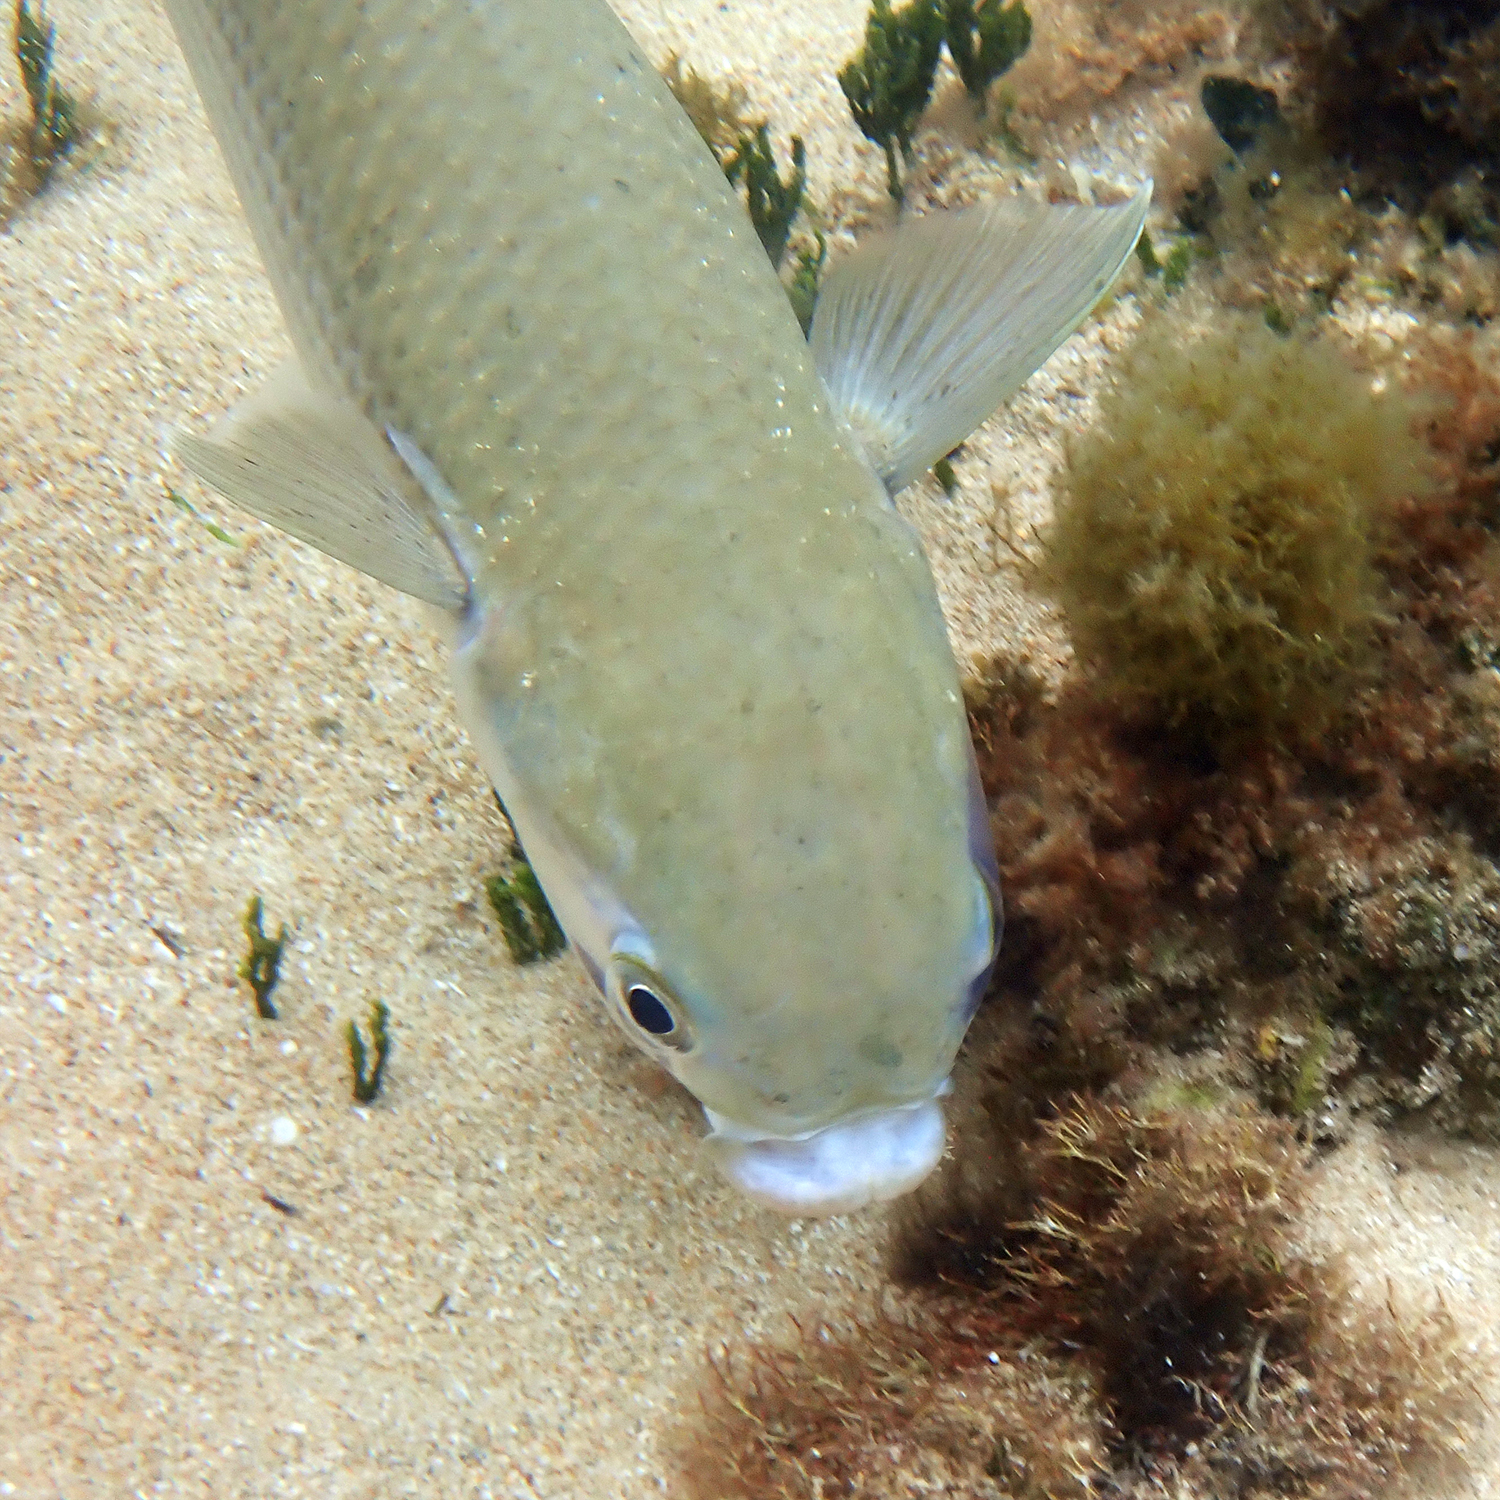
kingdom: Animalia
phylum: Chordata
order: Mugiliformes
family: Mugilidae
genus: Mugil
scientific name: Mugil cephalus
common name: Grey mullet
